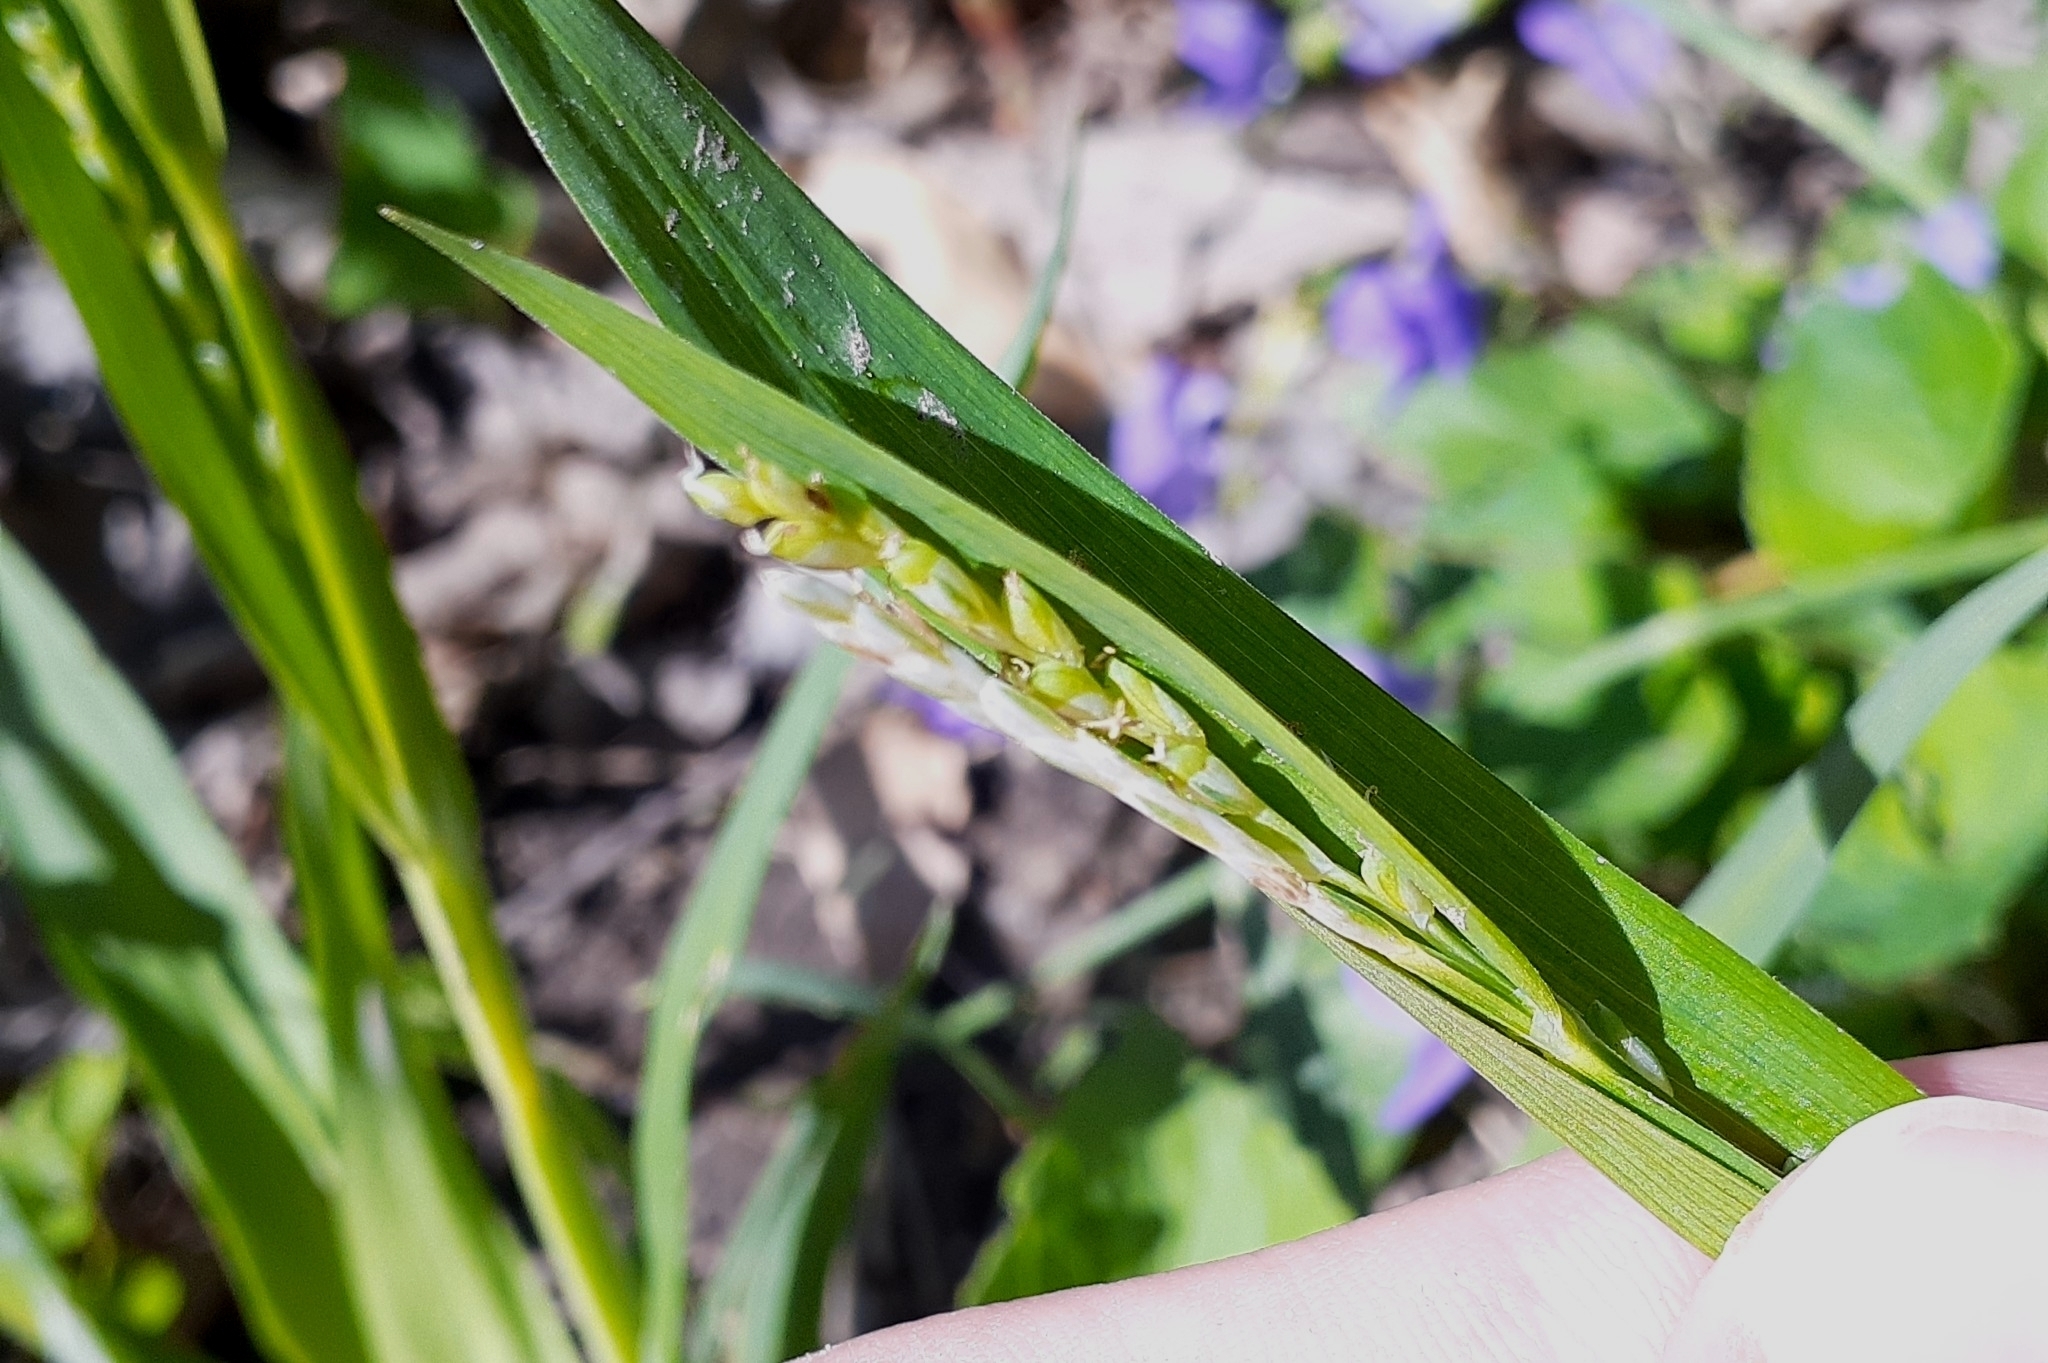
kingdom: Plantae
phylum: Tracheophyta
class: Liliopsida
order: Poales
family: Cyperaceae
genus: Carex
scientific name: Carex albursina
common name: Blunt-scale wood sedge
